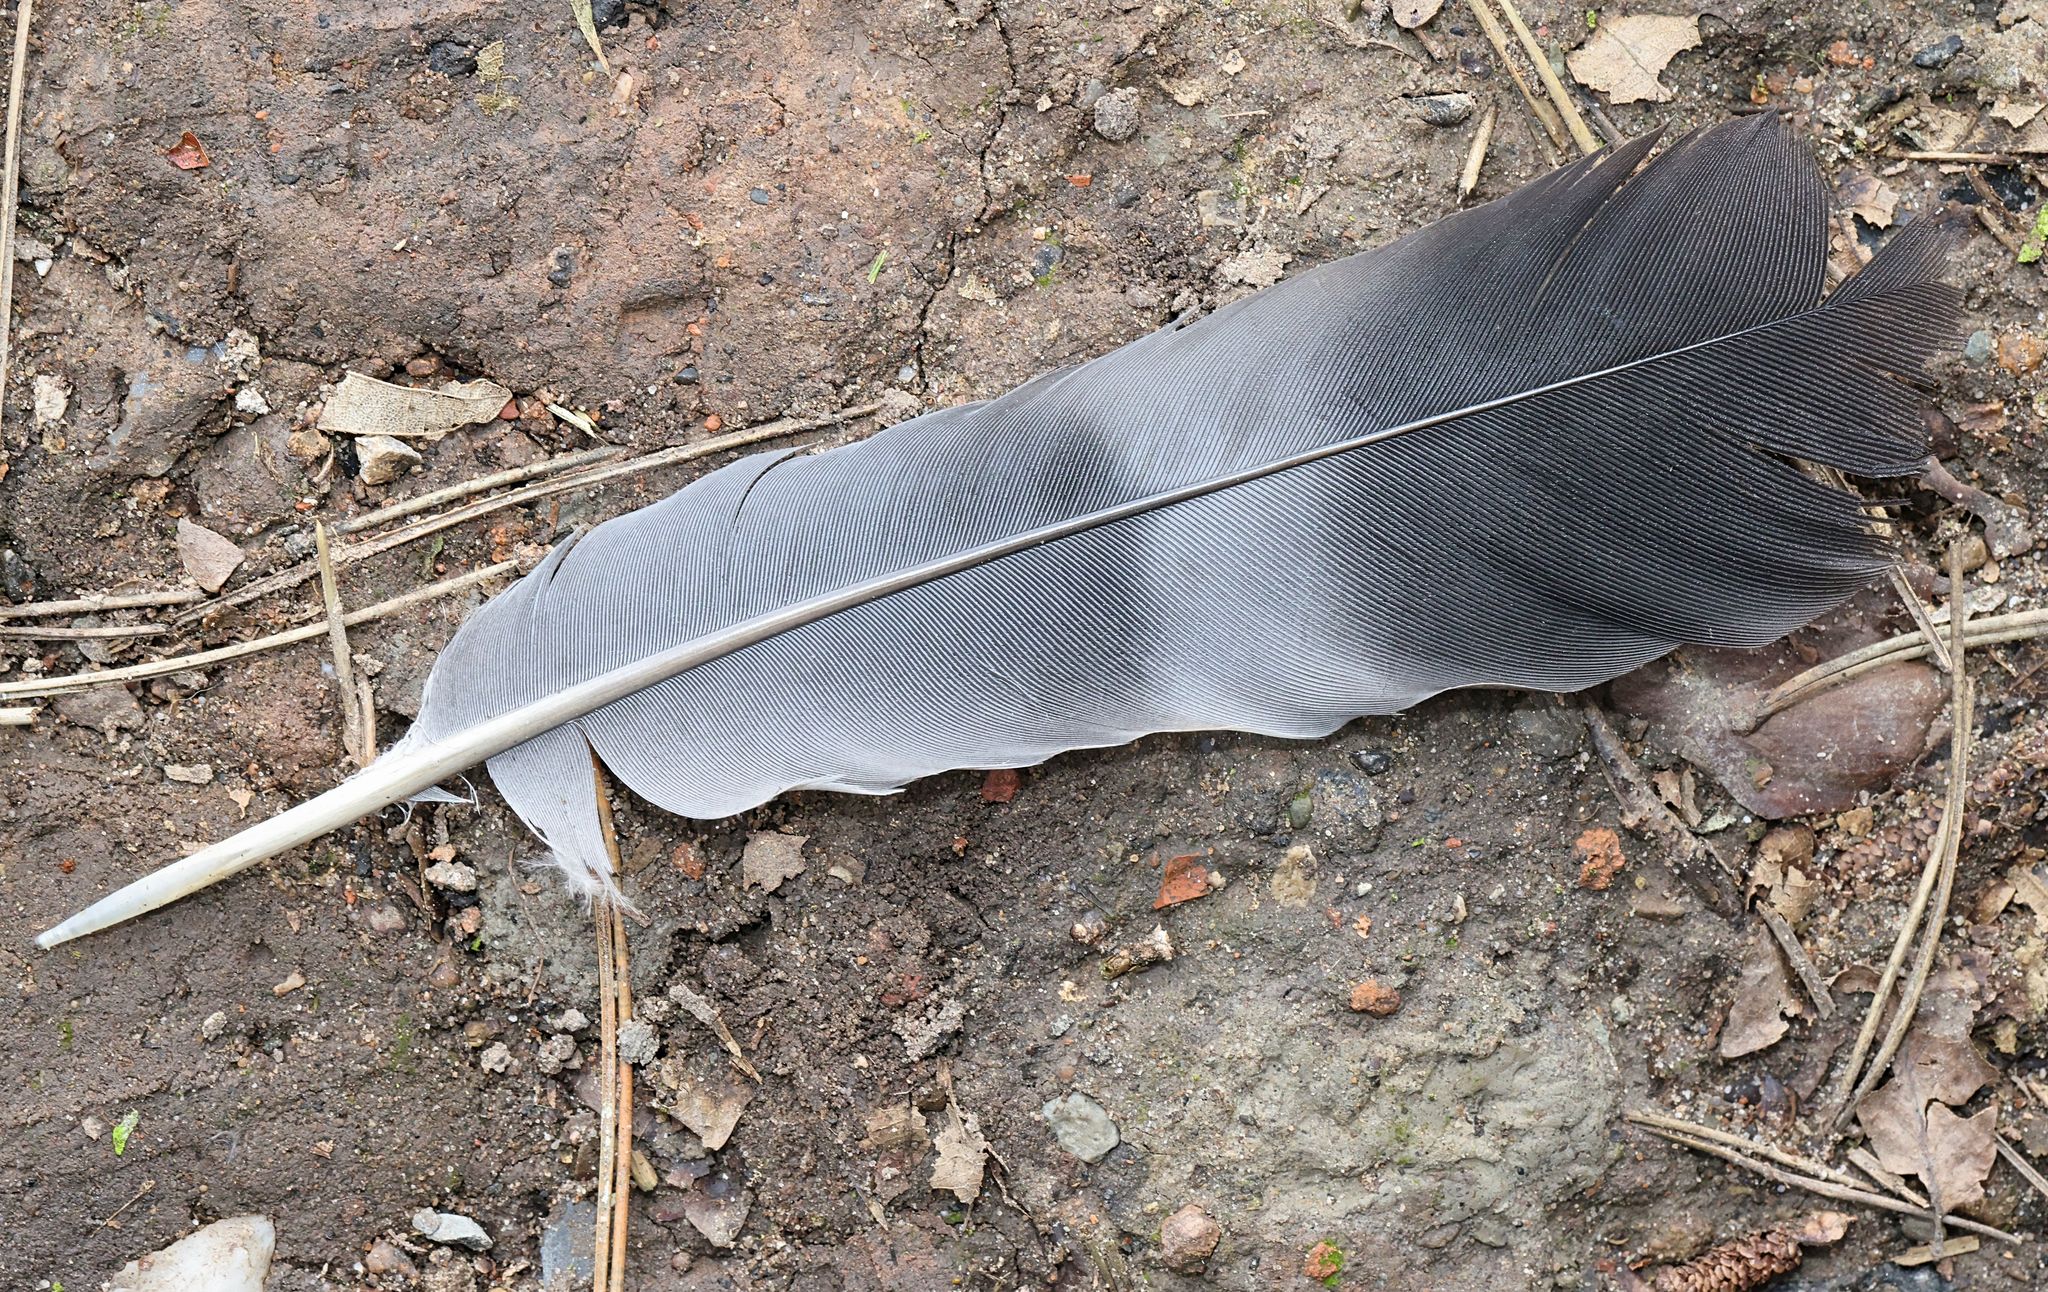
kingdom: Animalia
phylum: Chordata
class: Aves
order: Columbiformes
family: Columbidae
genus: Columba
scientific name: Columba palumbus
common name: Common wood pigeon
